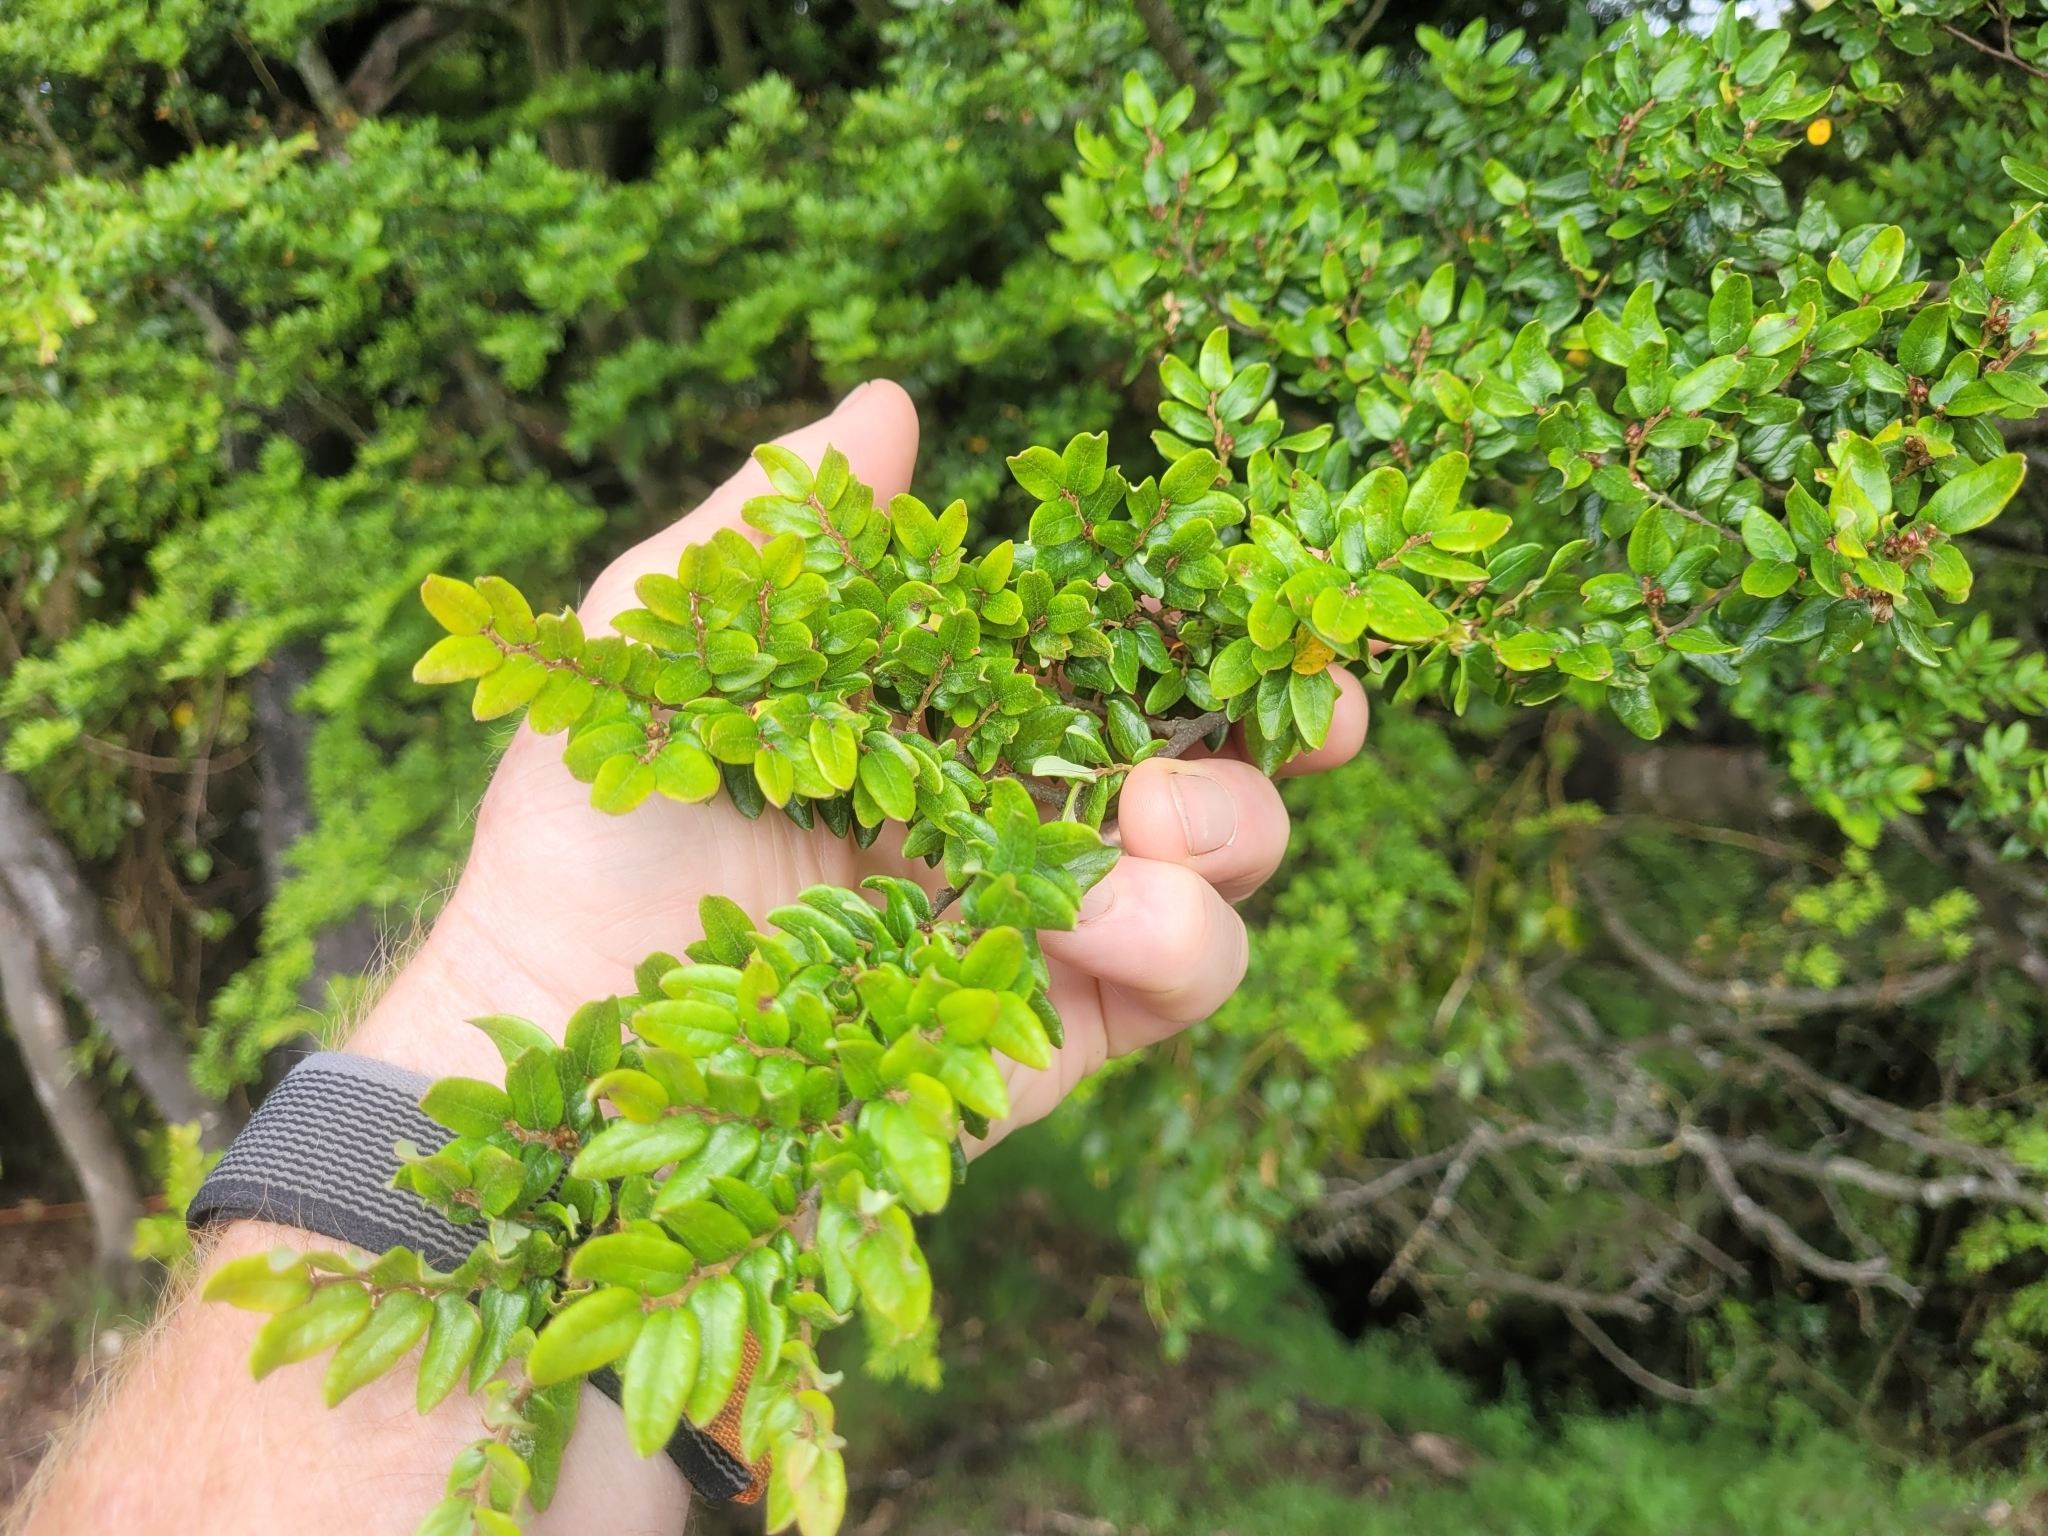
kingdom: Plantae
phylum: Tracheophyta
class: Magnoliopsida
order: Fagales
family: Nothofagaceae
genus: Nothofagus
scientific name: Nothofagus cliffortioides
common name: Mountain beech
